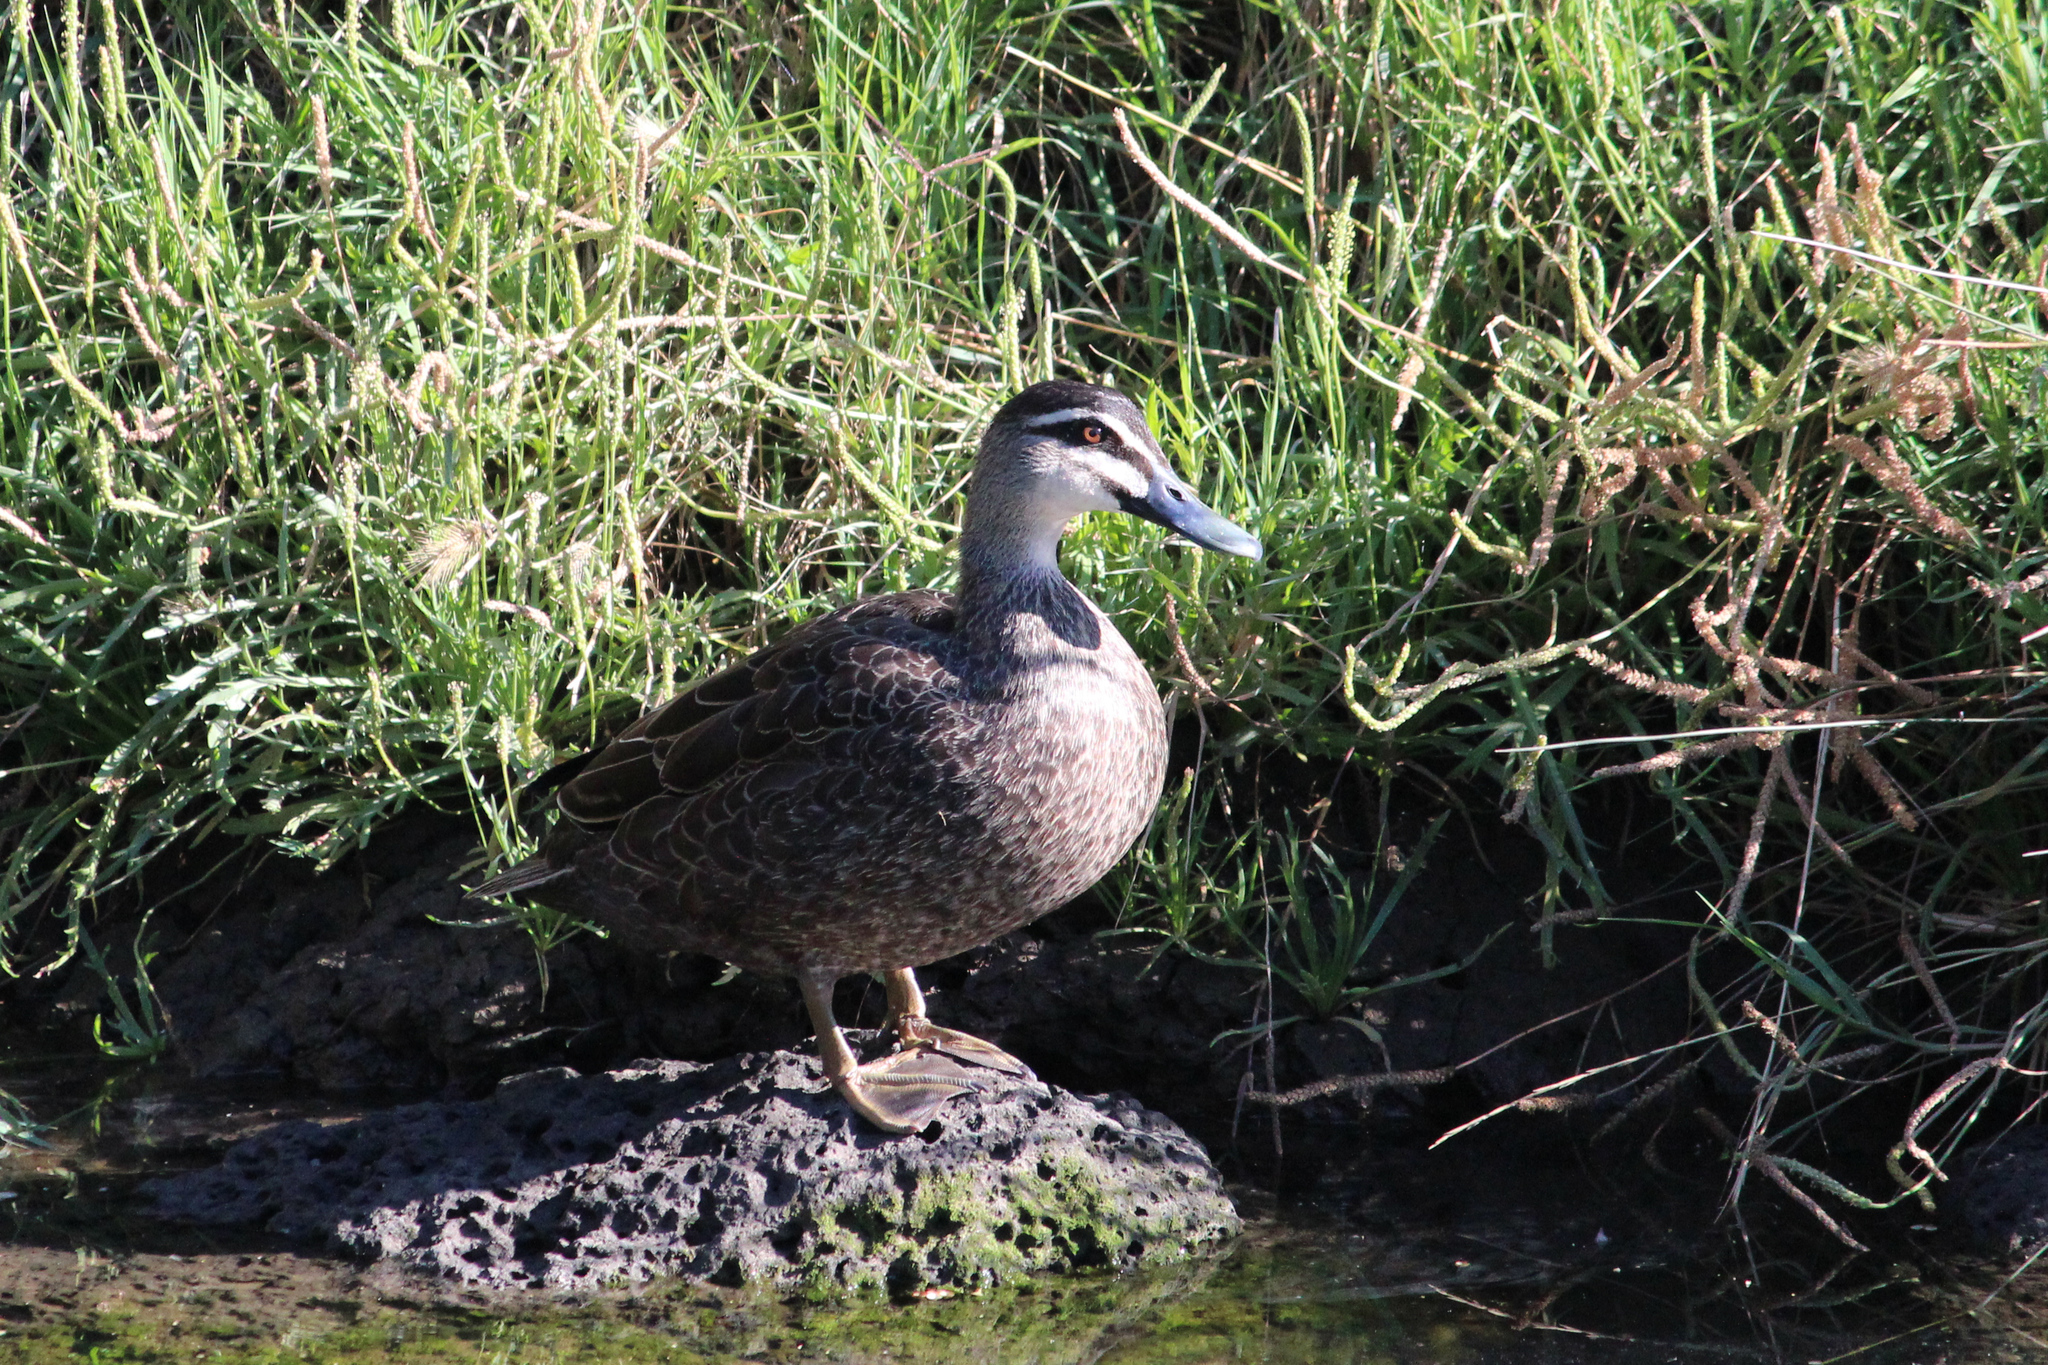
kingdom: Animalia
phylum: Chordata
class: Aves
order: Anseriformes
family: Anatidae
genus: Anas
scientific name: Anas superciliosa
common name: Pacific black duck
